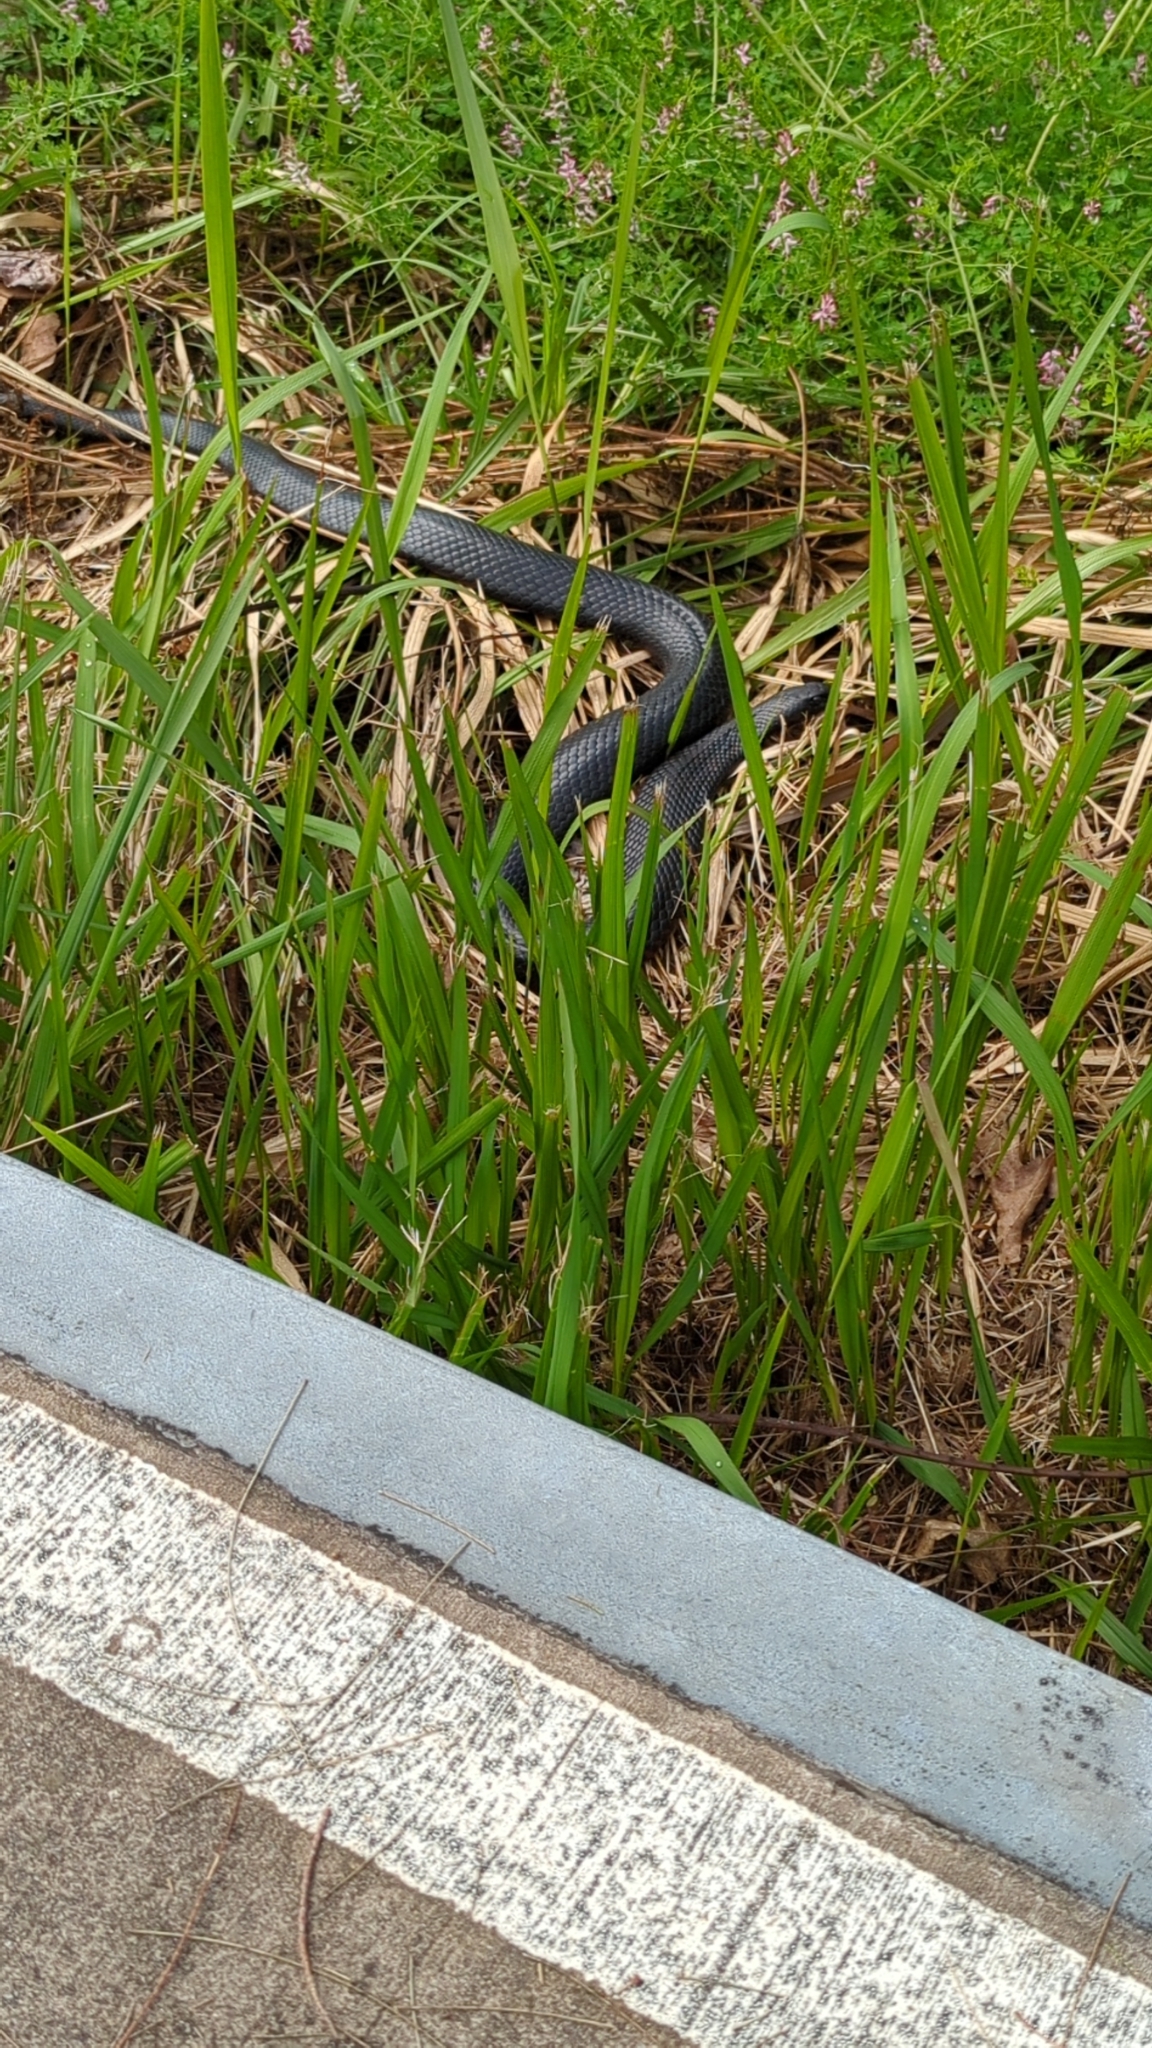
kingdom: Animalia
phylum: Chordata
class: Squamata
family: Elapidae
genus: Pseudechis
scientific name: Pseudechis porphyriacus
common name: Australian black snake
